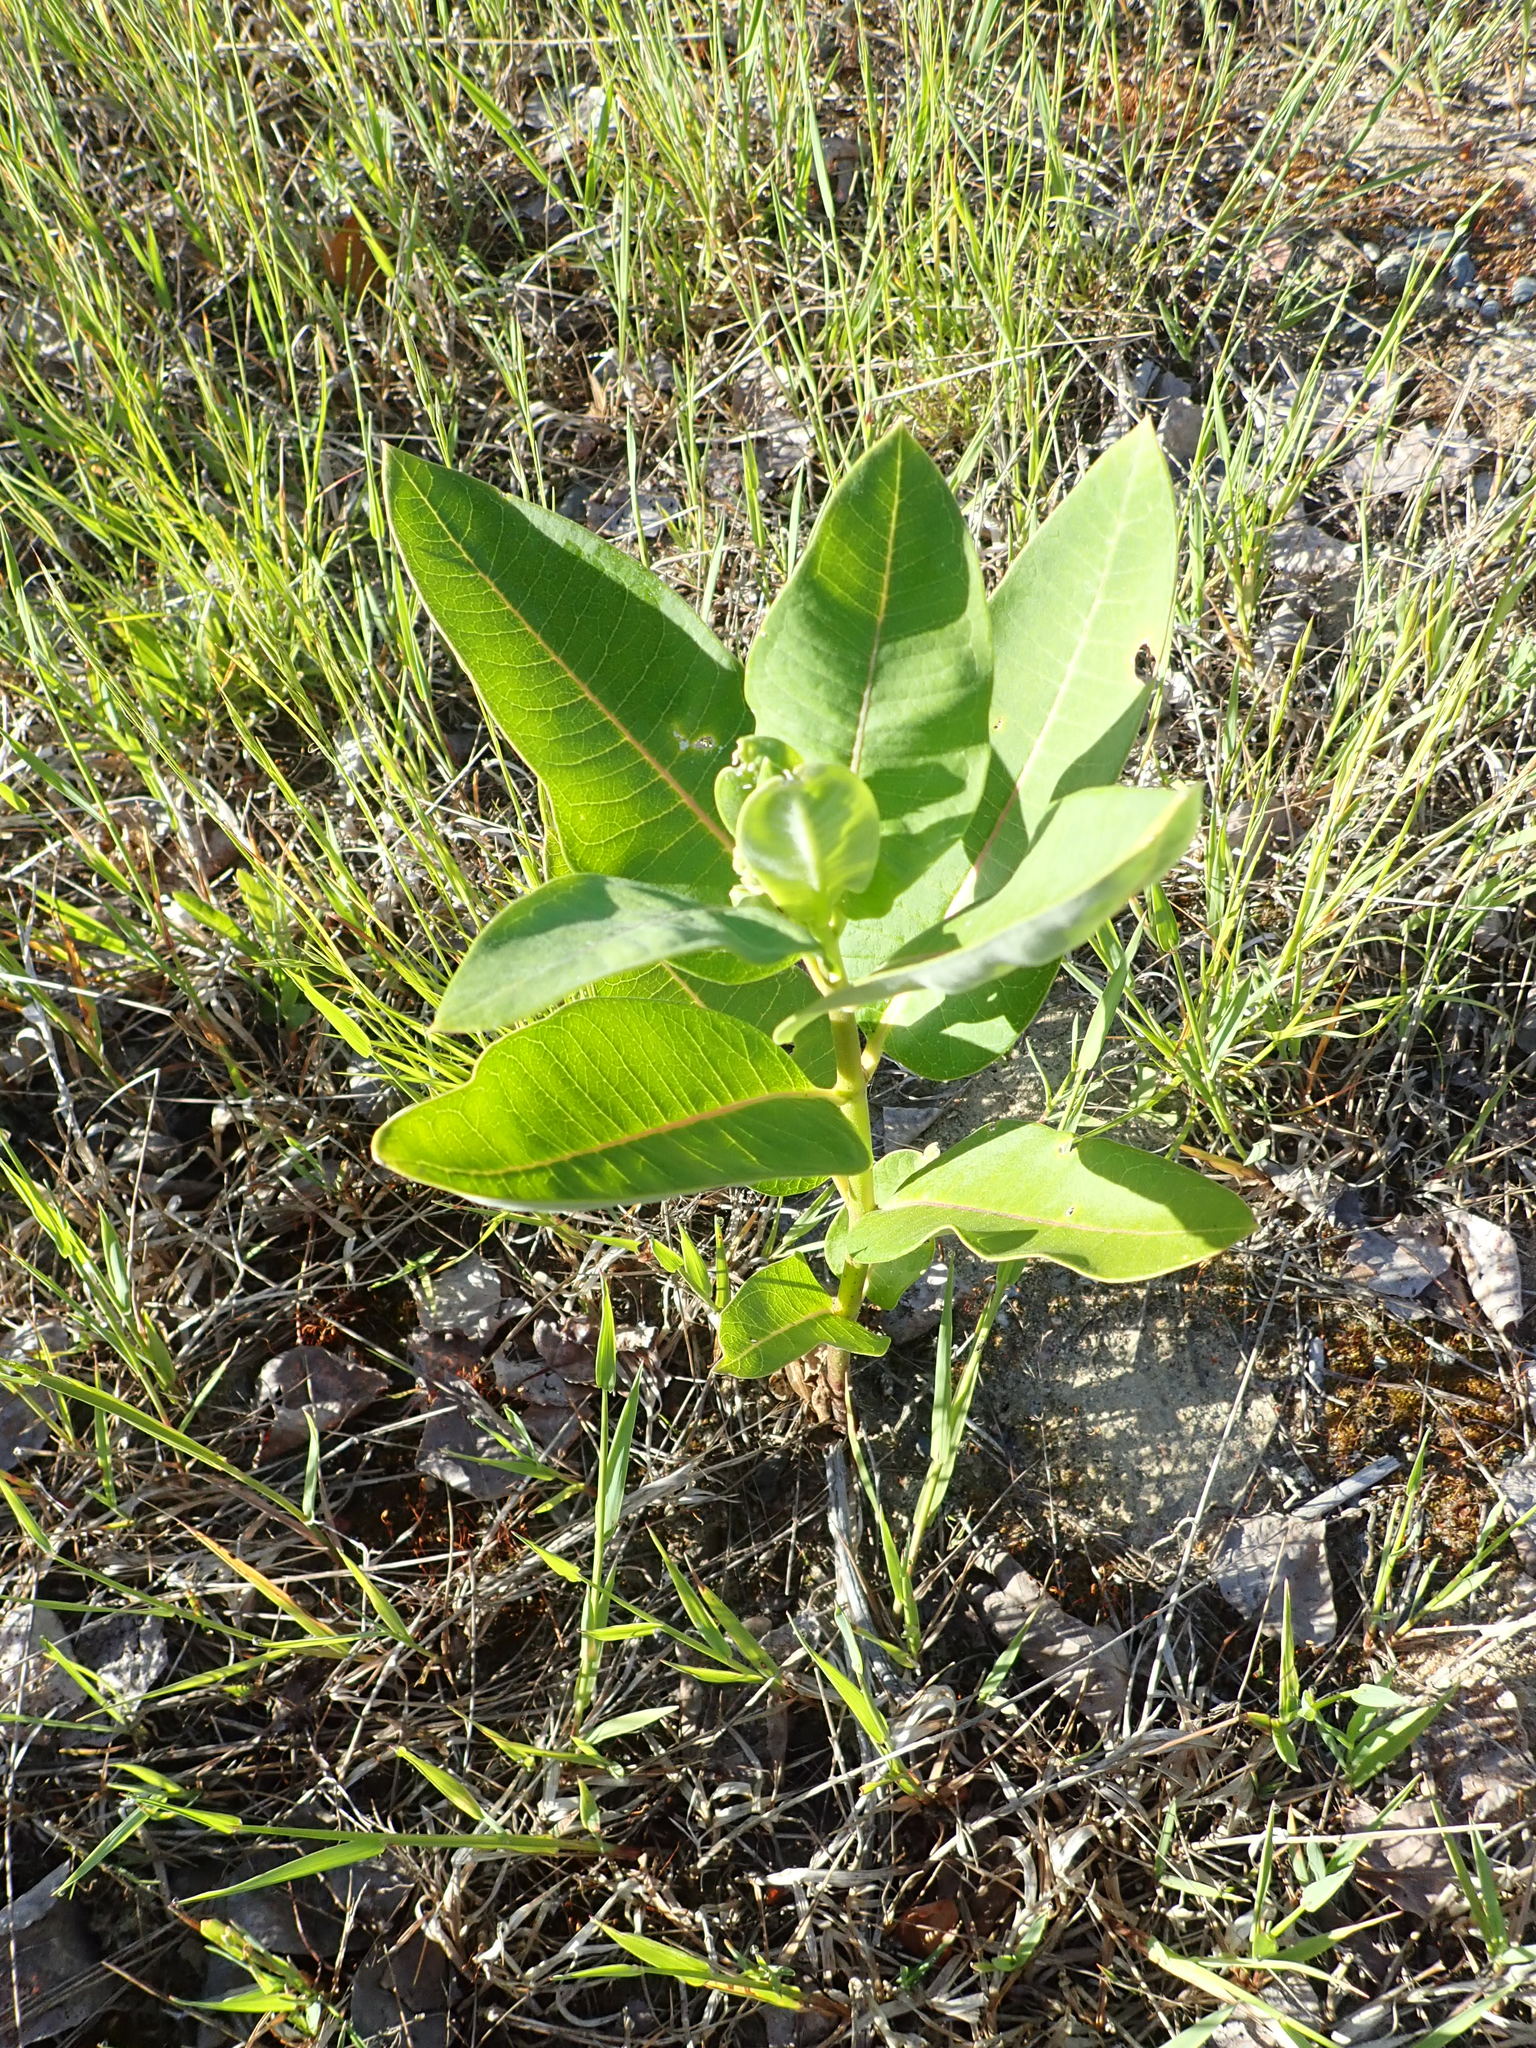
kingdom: Plantae
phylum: Tracheophyta
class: Magnoliopsida
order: Gentianales
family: Apocynaceae
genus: Asclepias
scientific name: Asclepias syriaca
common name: Common milkweed
